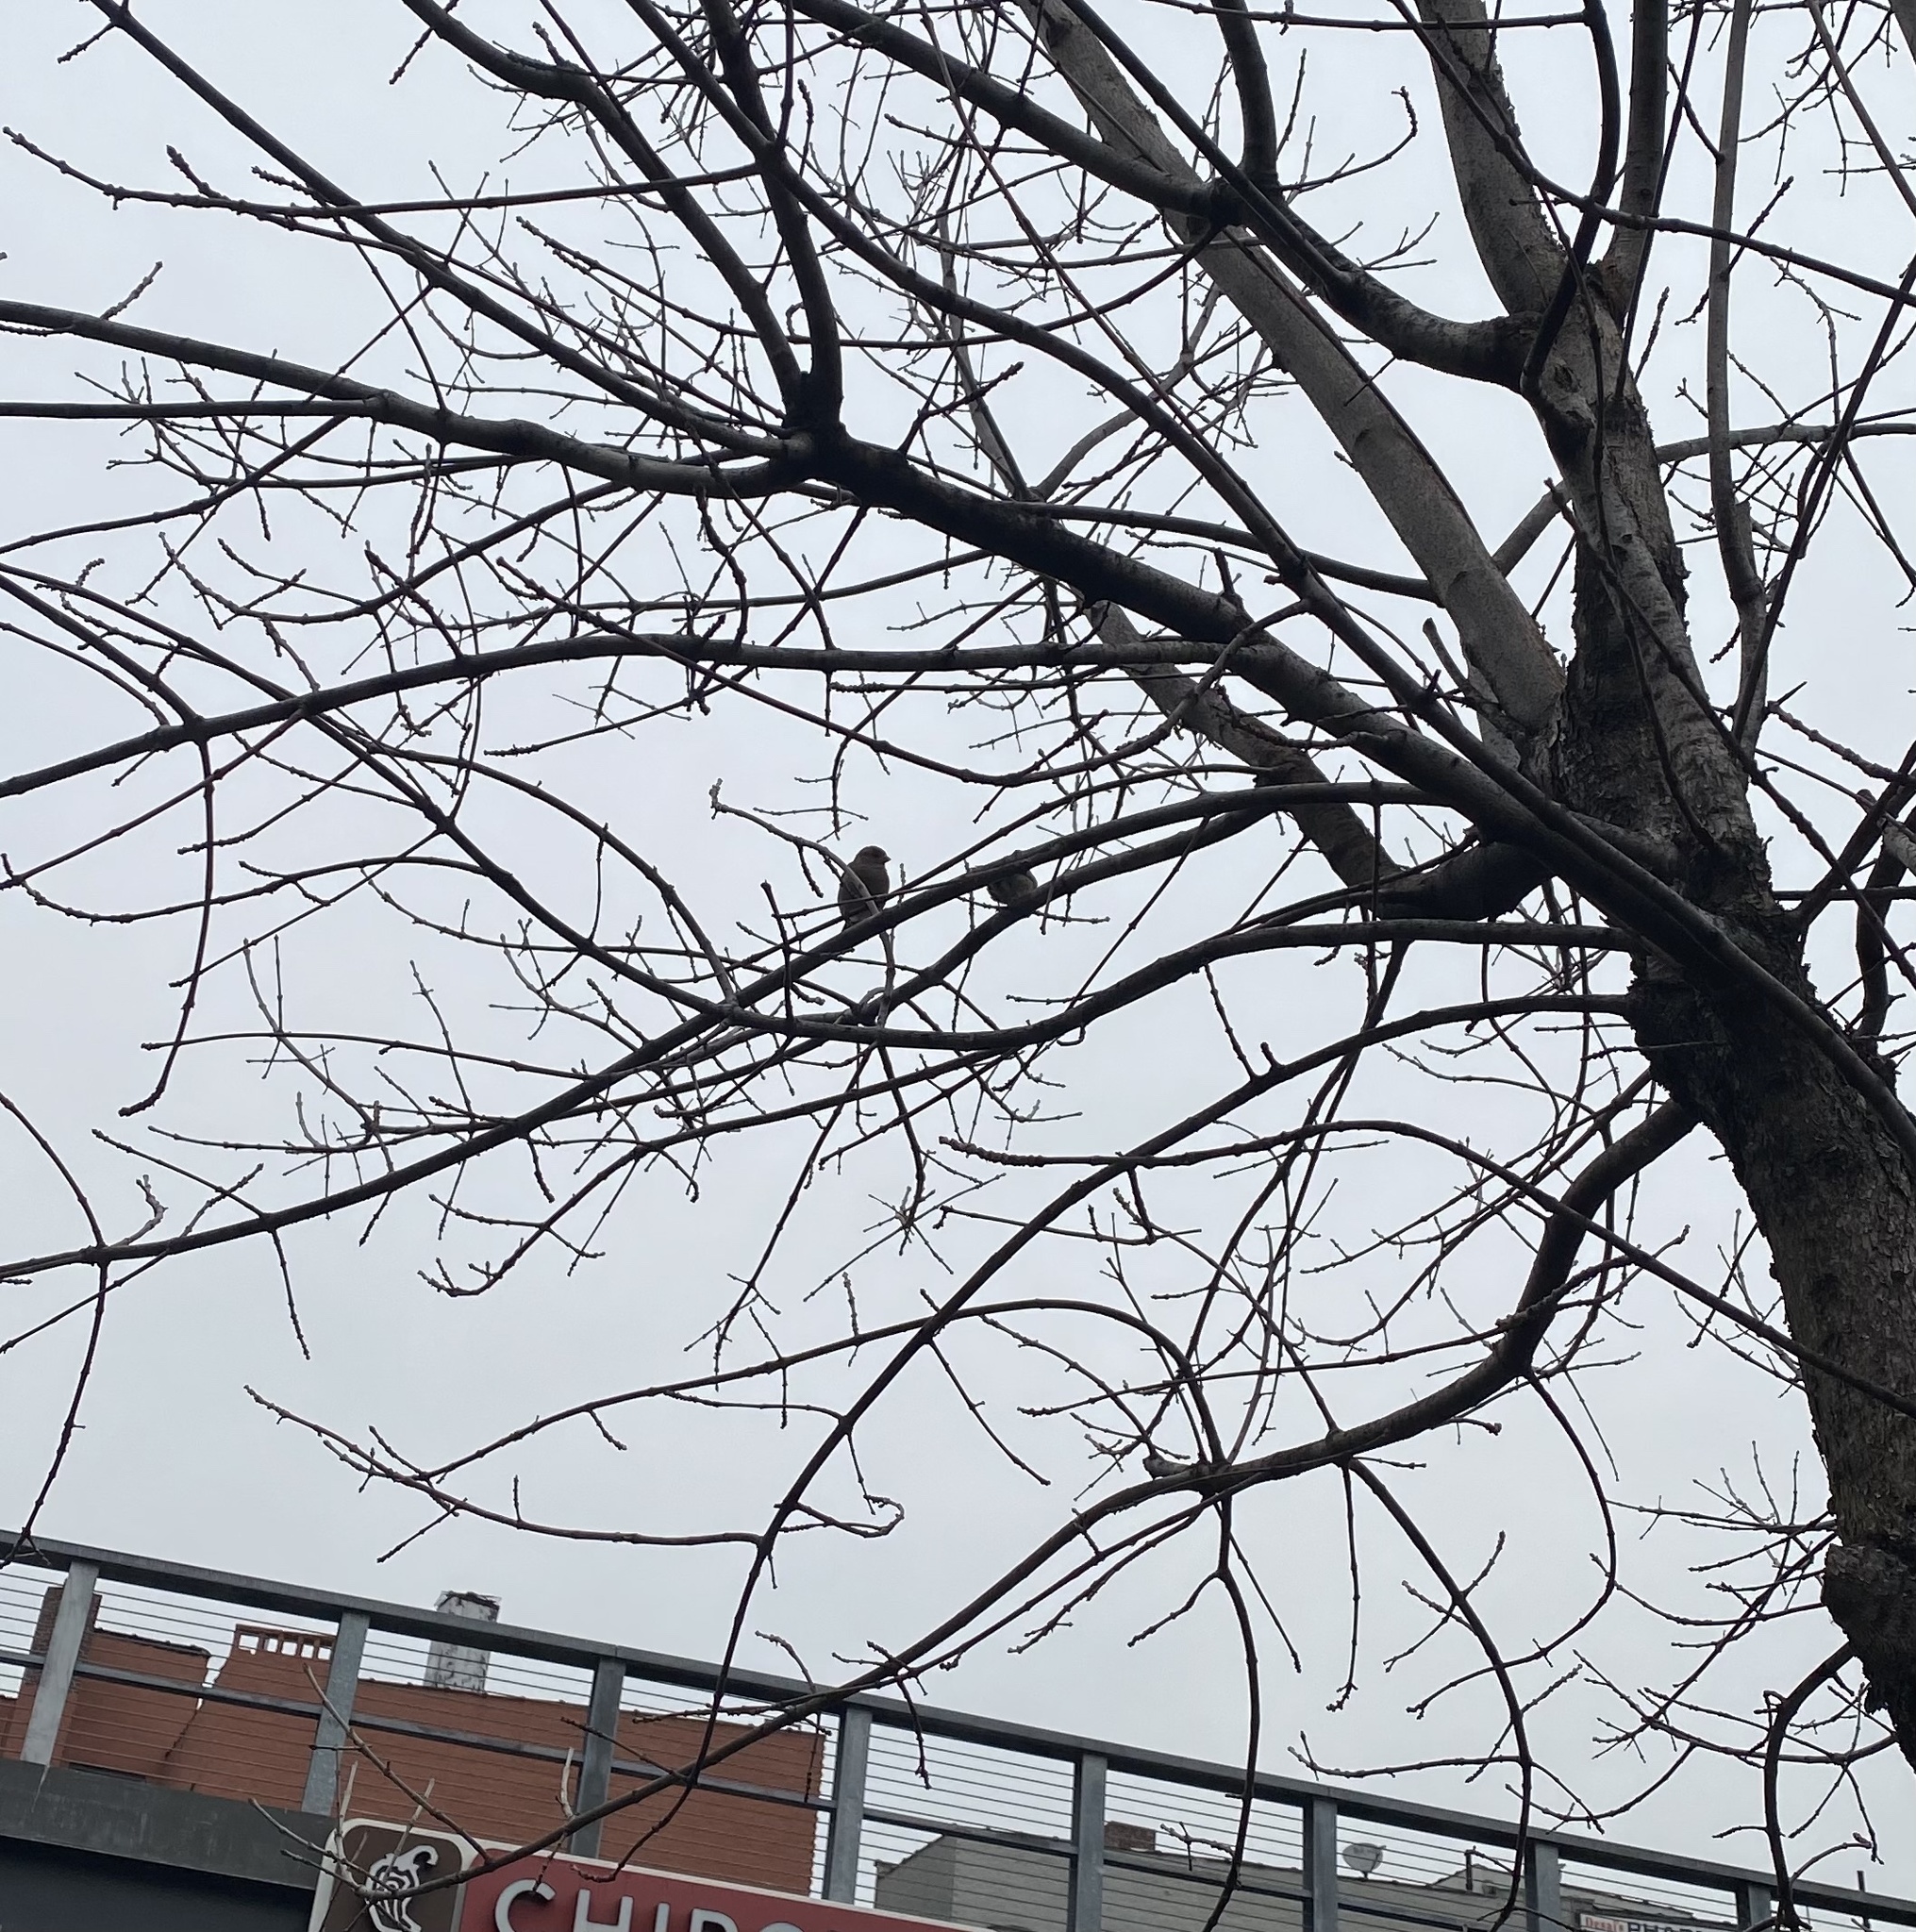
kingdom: Animalia
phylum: Chordata
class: Aves
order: Passeriformes
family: Passeridae
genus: Passer
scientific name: Passer domesticus
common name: House sparrow
